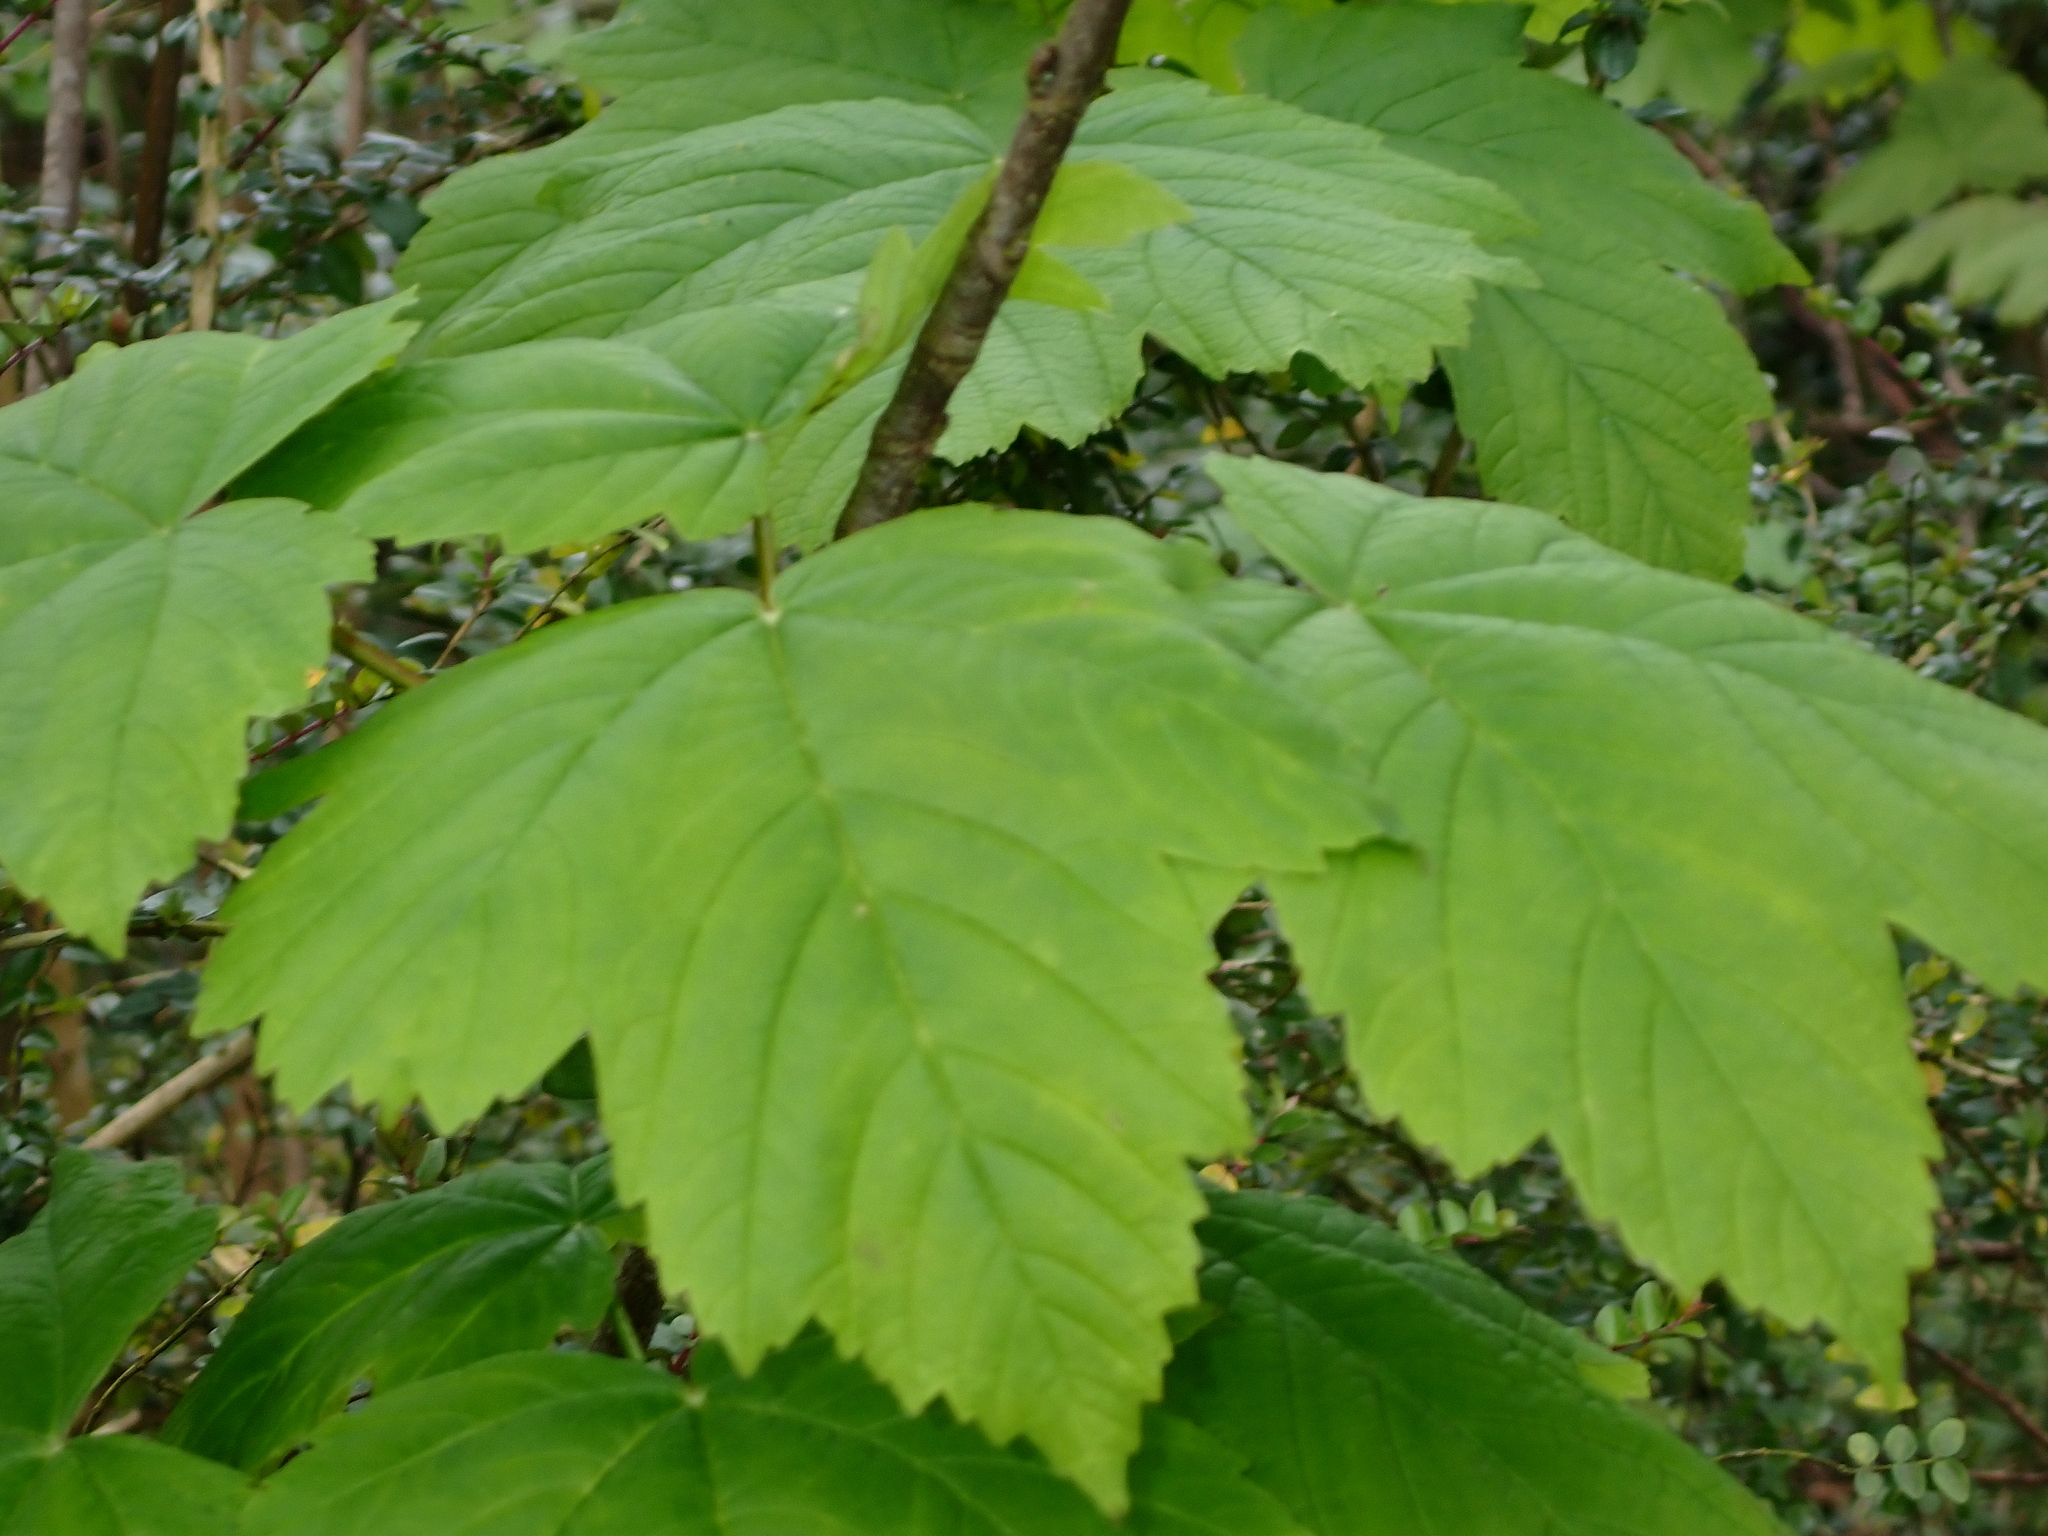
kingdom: Plantae
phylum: Tracheophyta
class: Magnoliopsida
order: Sapindales
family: Sapindaceae
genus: Acer
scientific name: Acer pseudoplatanus
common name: Sycamore
